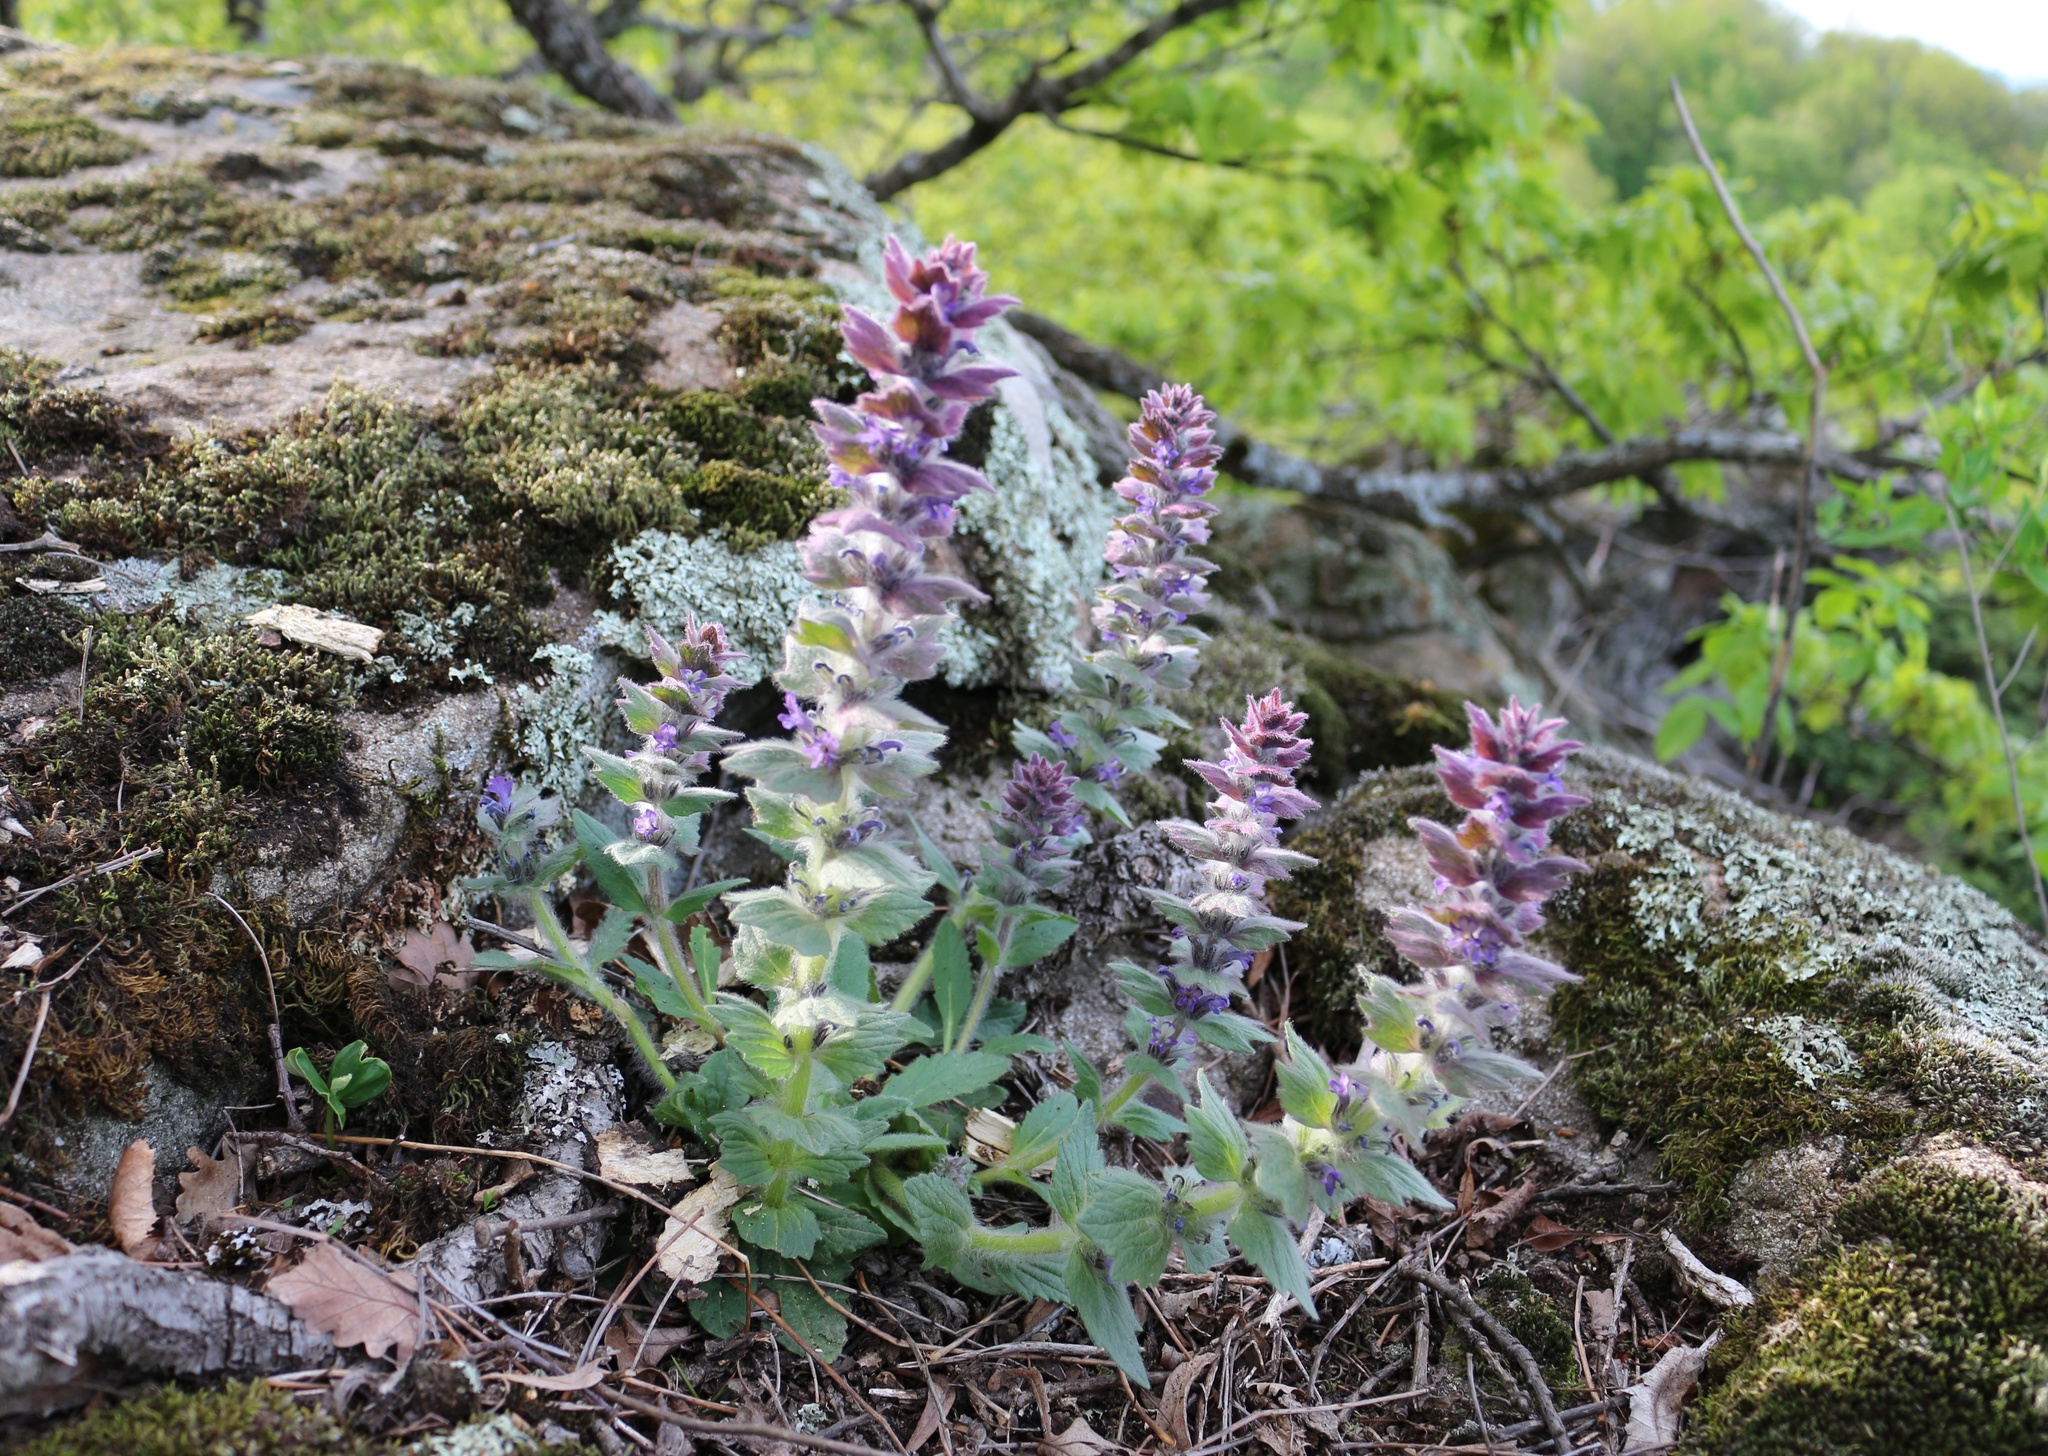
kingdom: Plantae
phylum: Tracheophyta
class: Magnoliopsida
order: Lamiales
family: Lamiaceae
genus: Ajuga
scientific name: Ajuga orientalis
